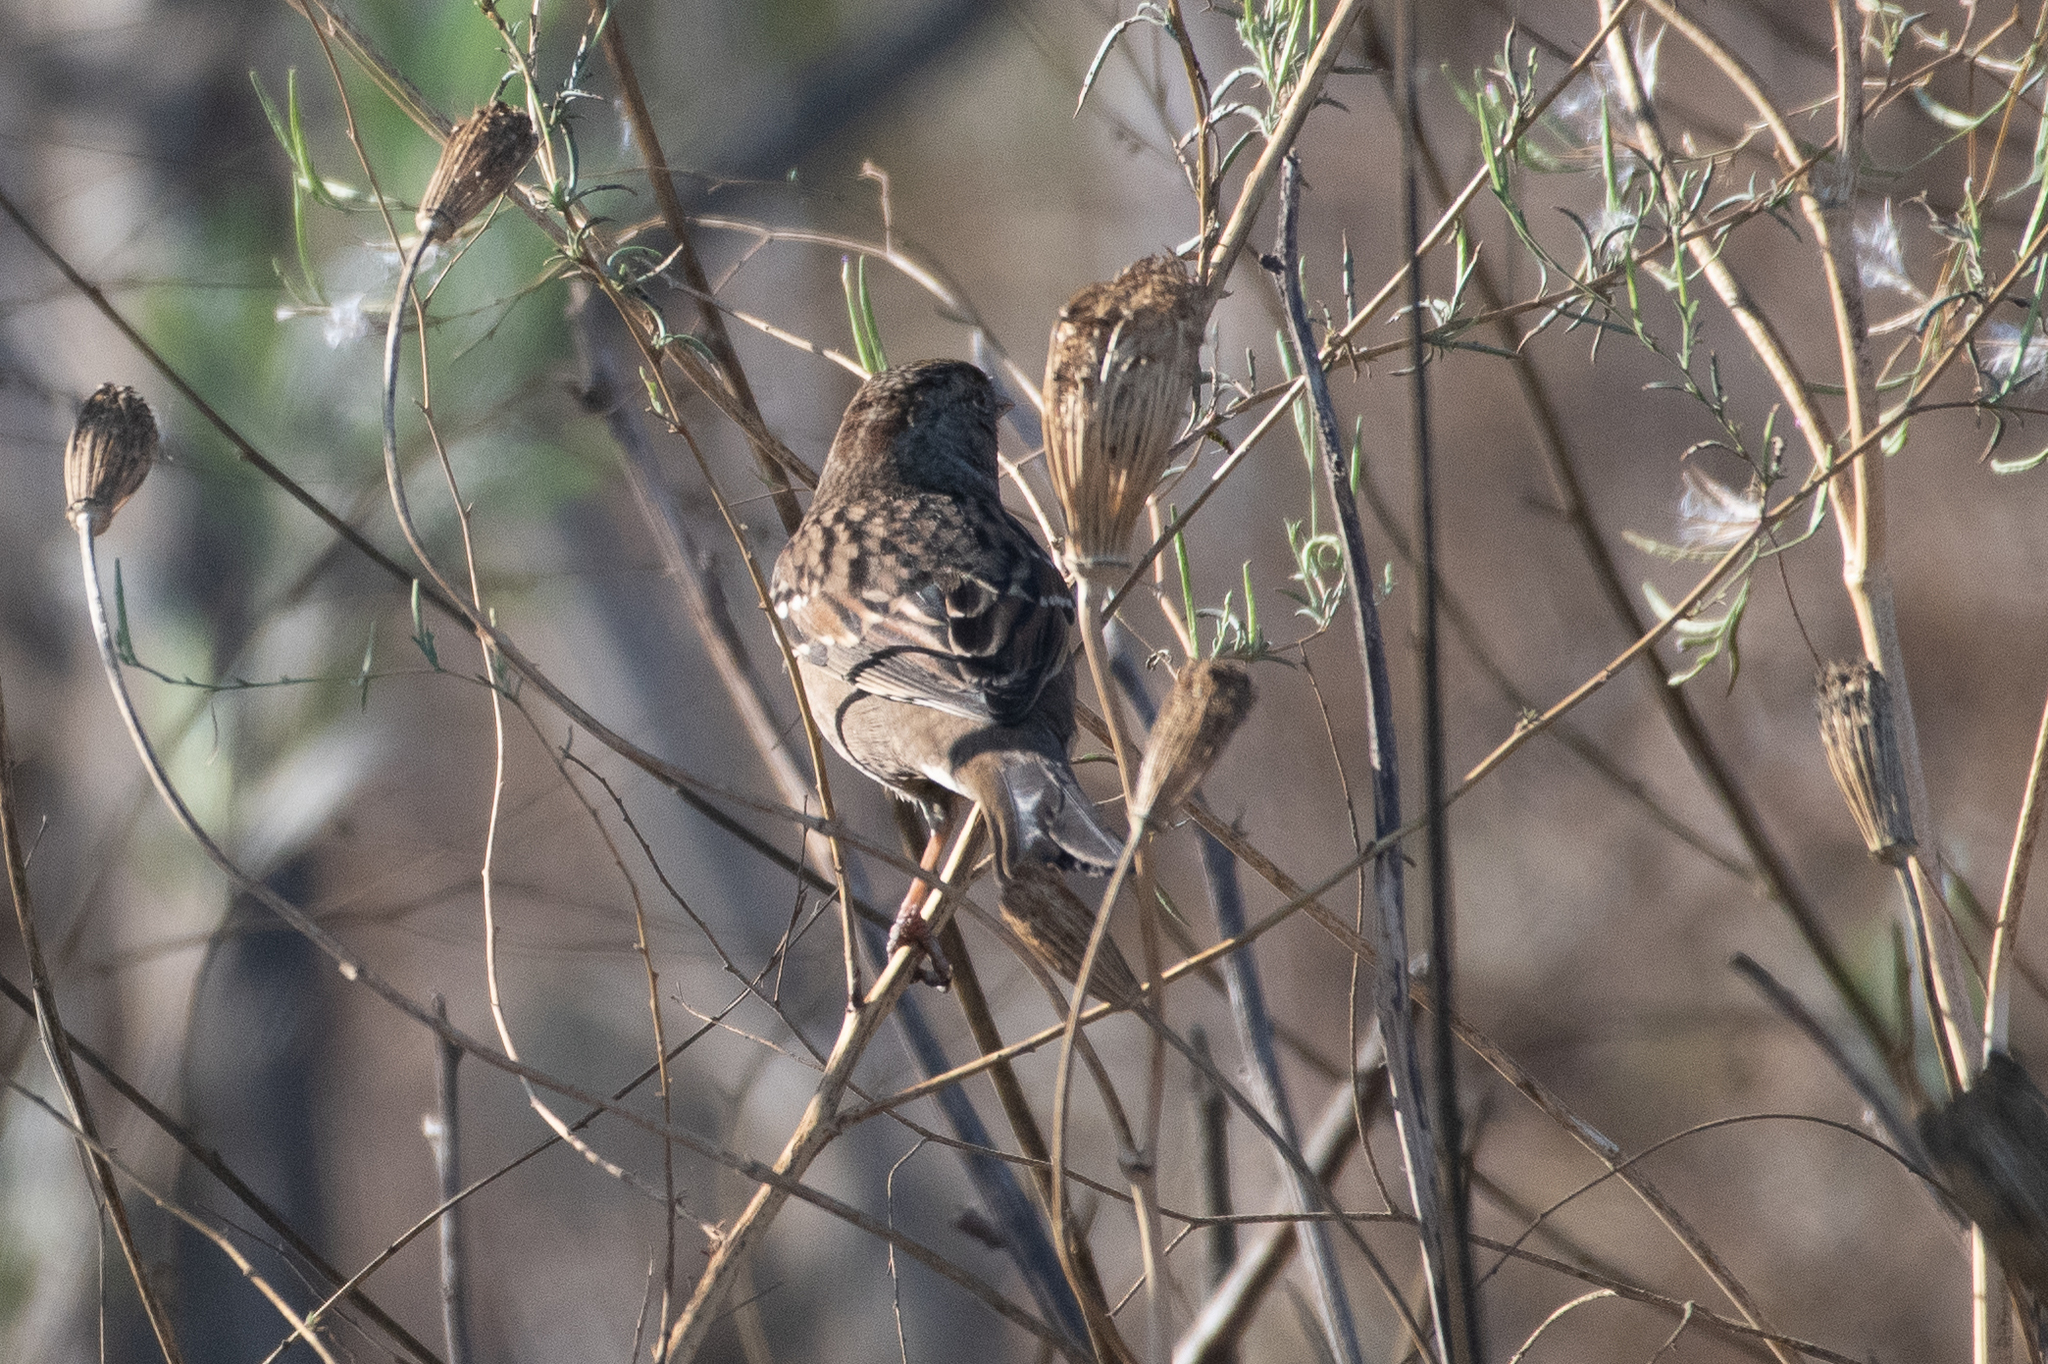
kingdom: Animalia
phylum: Chordata
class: Aves
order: Passeriformes
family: Passerellidae
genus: Zonotrichia
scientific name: Zonotrichia atricapilla
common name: Golden-crowned sparrow
